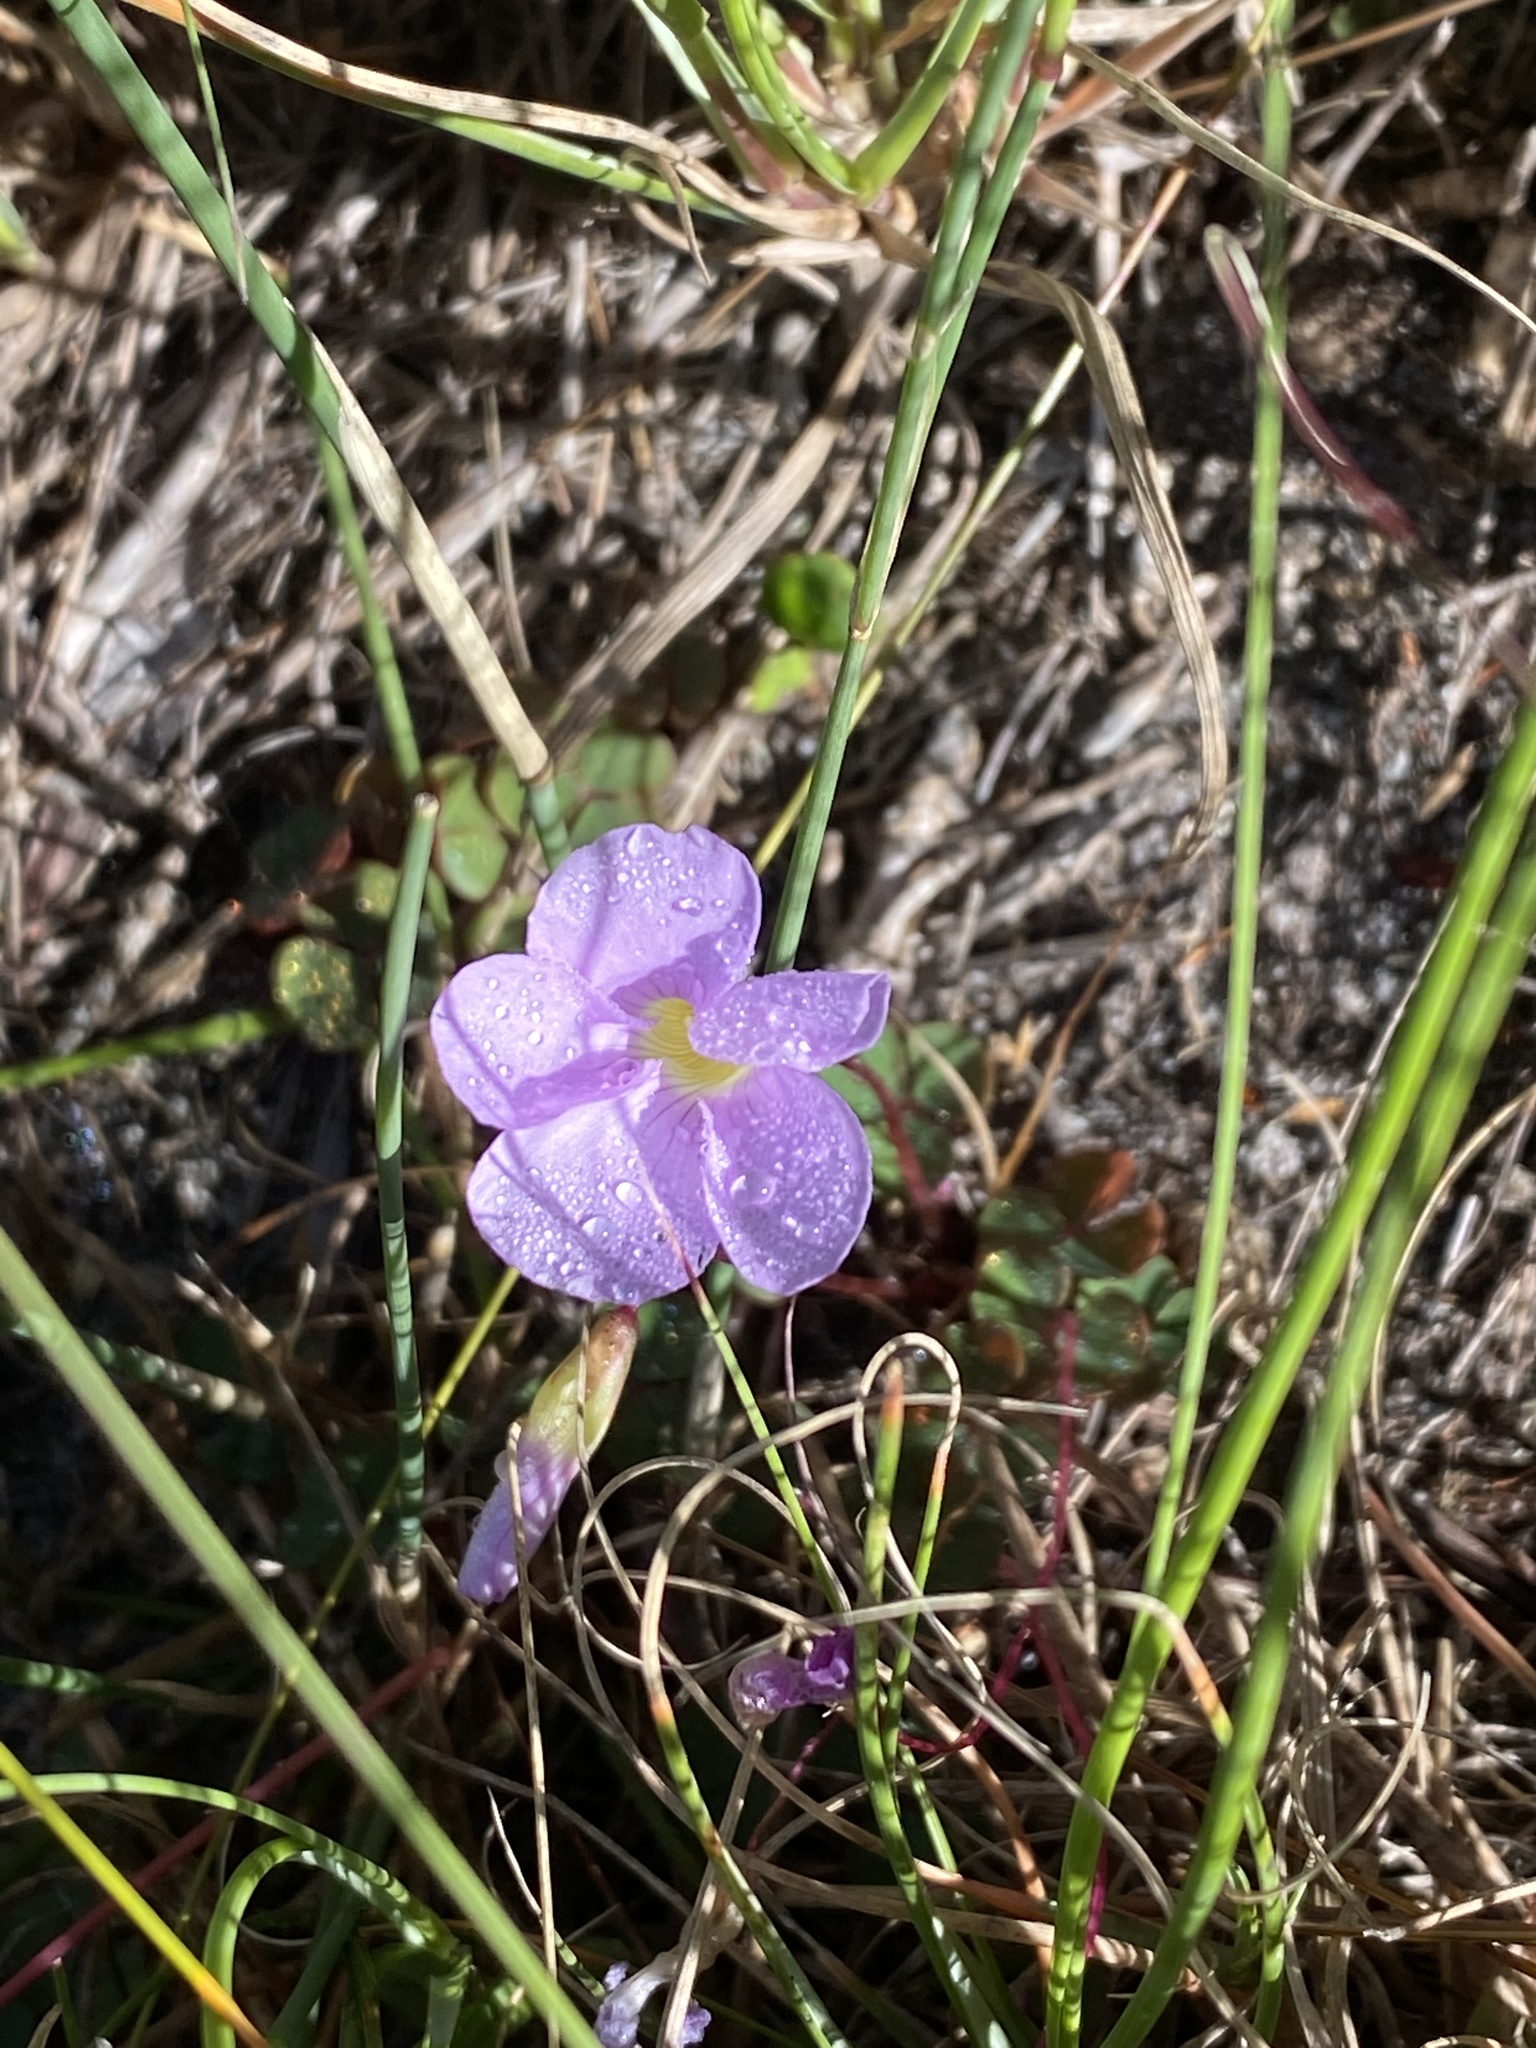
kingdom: Plantae
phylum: Tracheophyta
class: Magnoliopsida
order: Oxalidales
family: Oxalidaceae
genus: Oxalis
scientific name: Oxalis commutata
